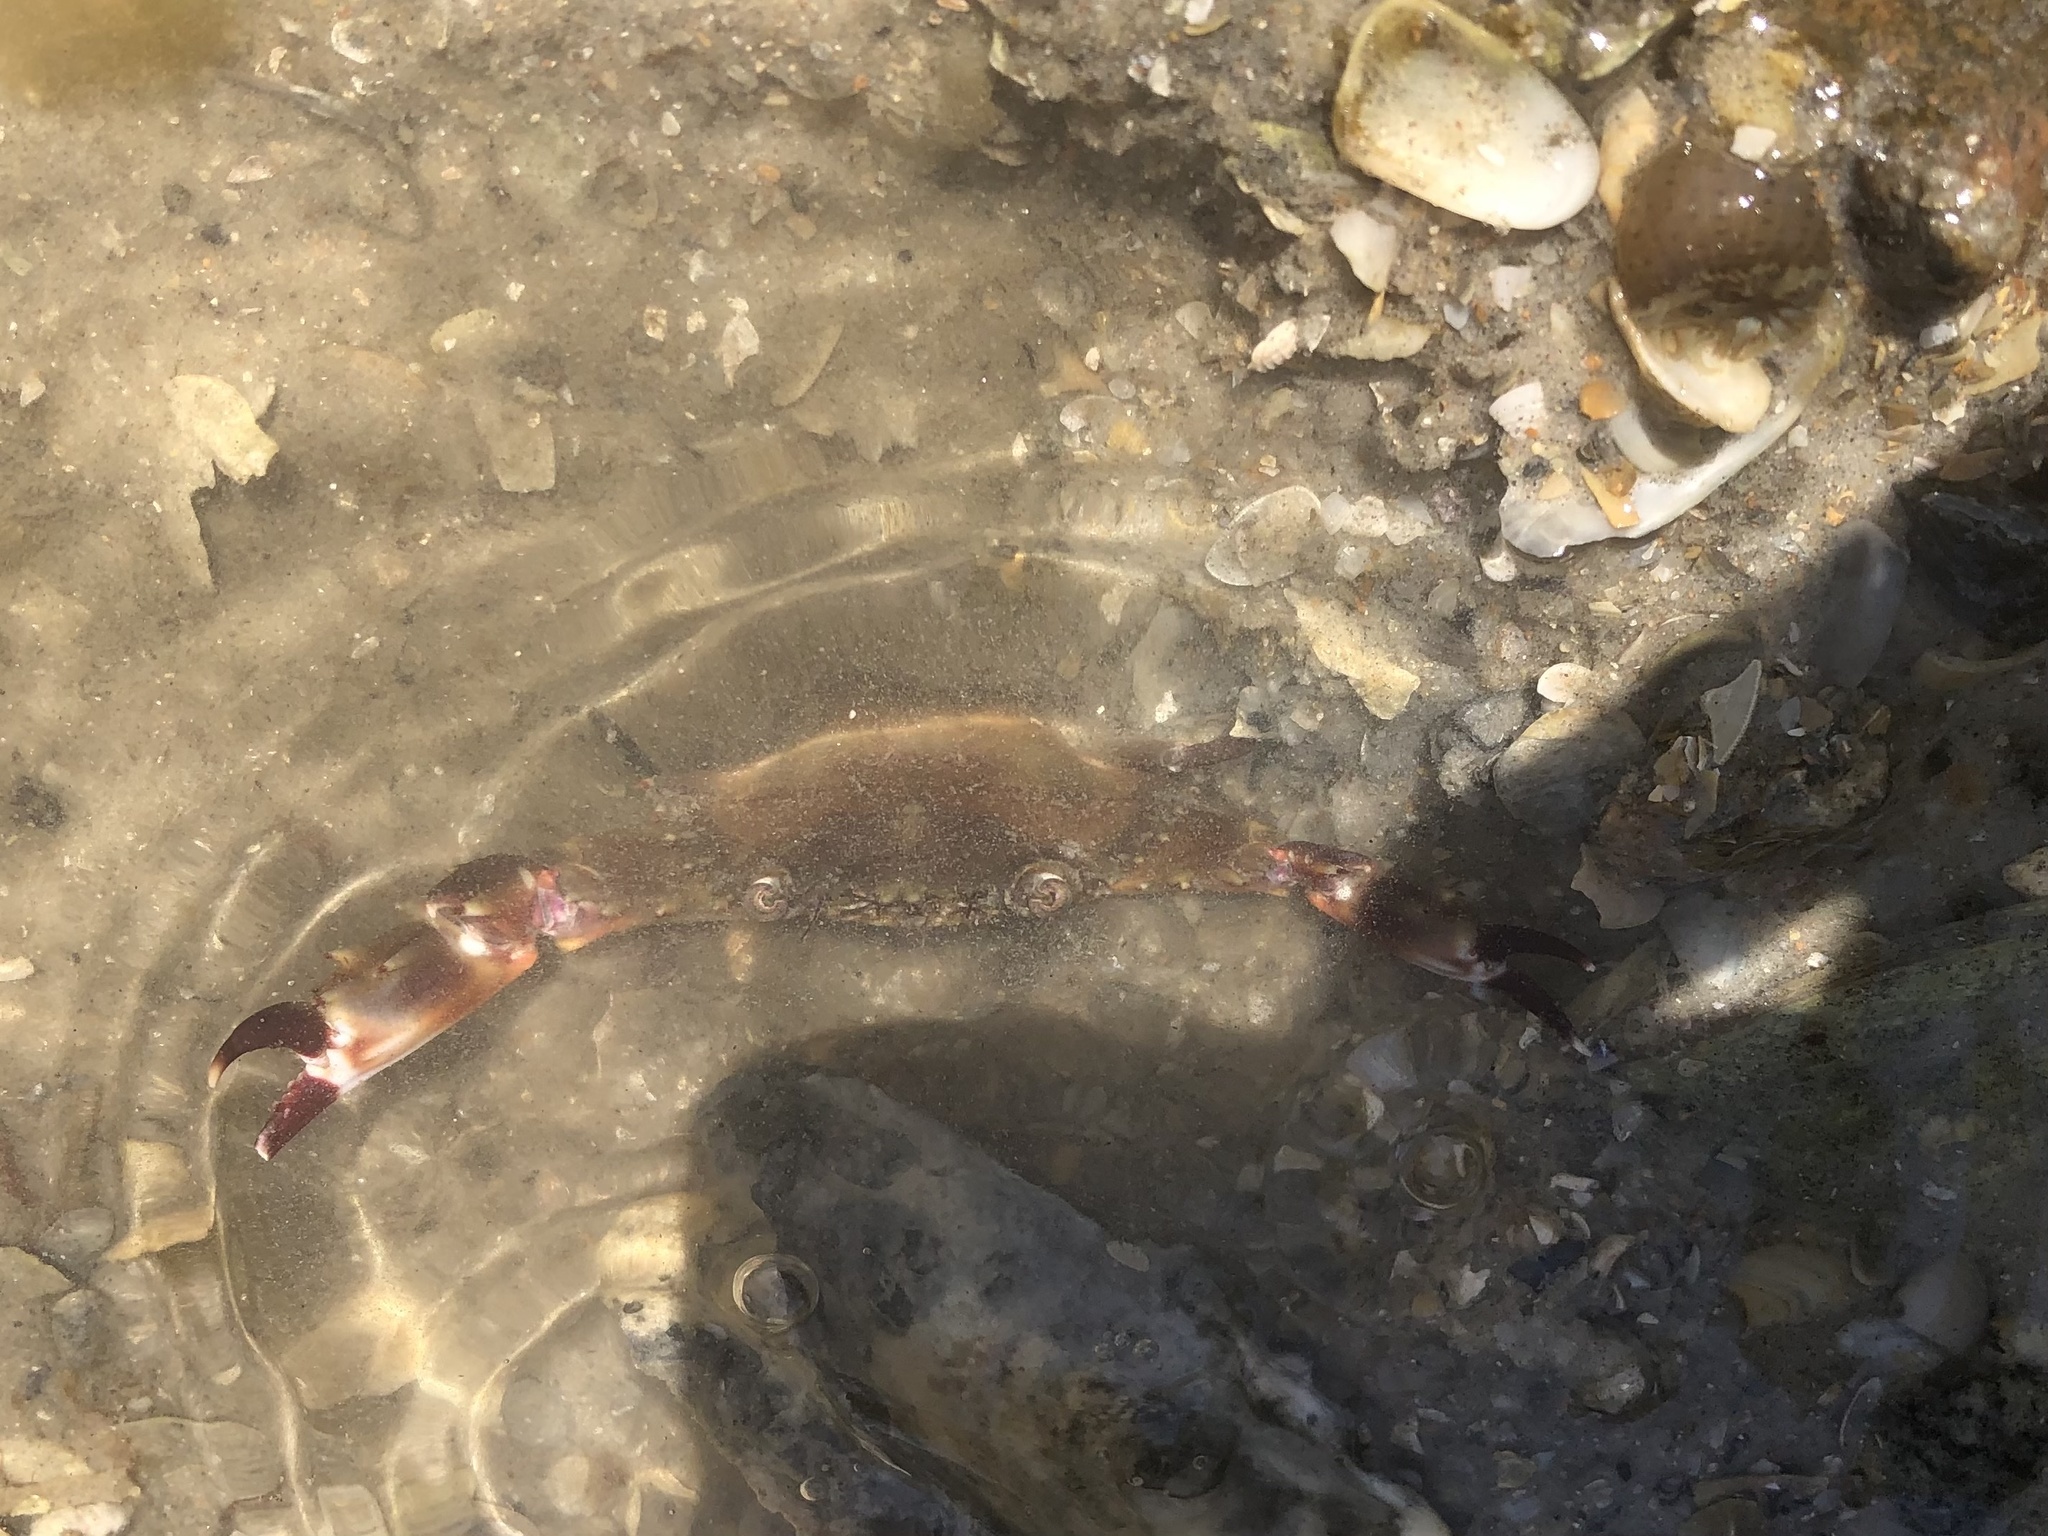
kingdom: Animalia
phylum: Arthropoda
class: Malacostraca
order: Decapoda
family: Portunidae
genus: Charybdis
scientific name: Charybdis hellerii
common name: Spiny hands
